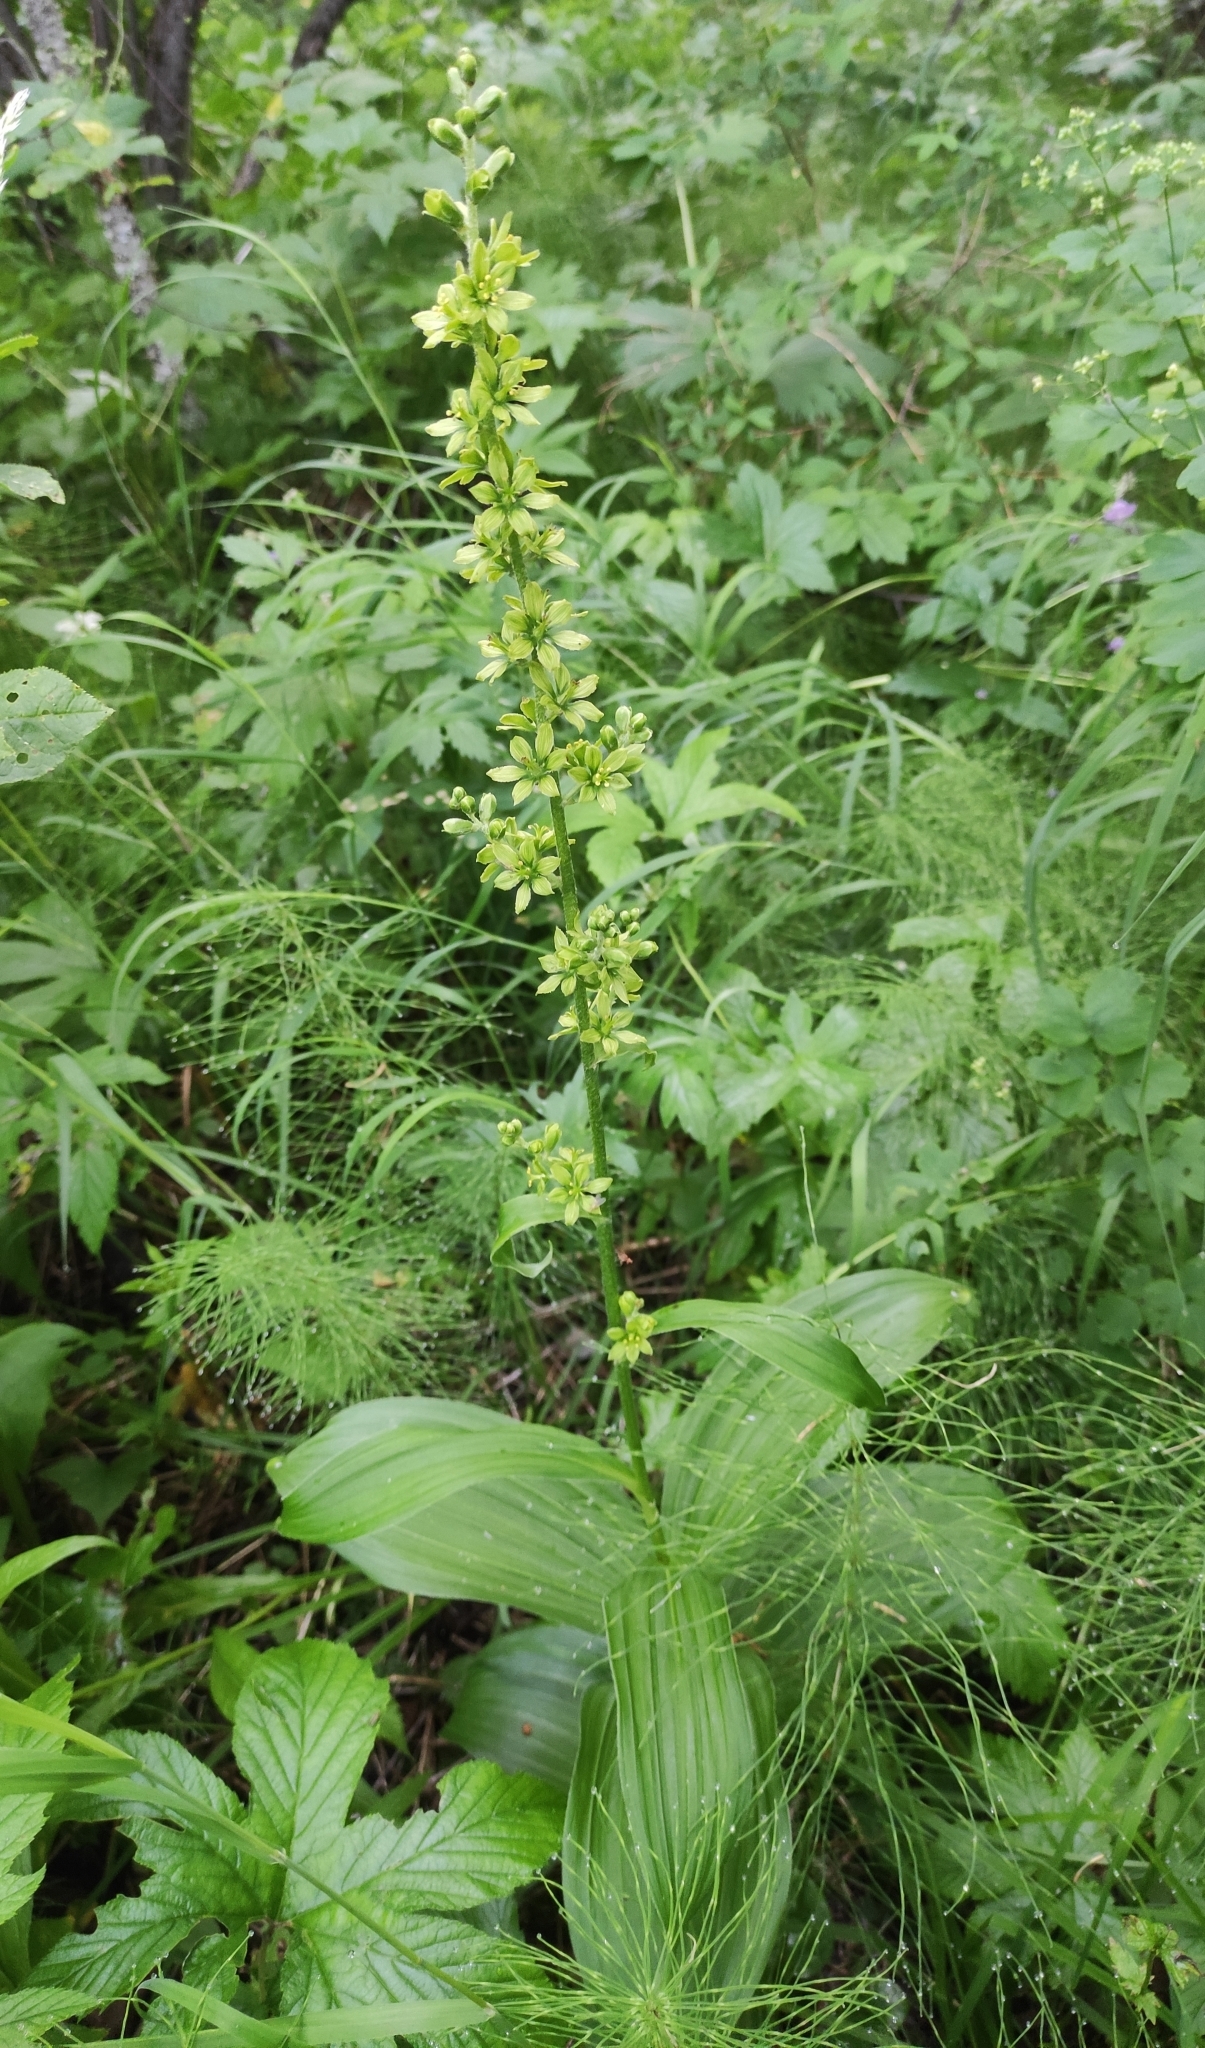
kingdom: Plantae
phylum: Tracheophyta
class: Liliopsida
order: Liliales
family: Melanthiaceae
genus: Veratrum
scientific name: Veratrum lobelianum
